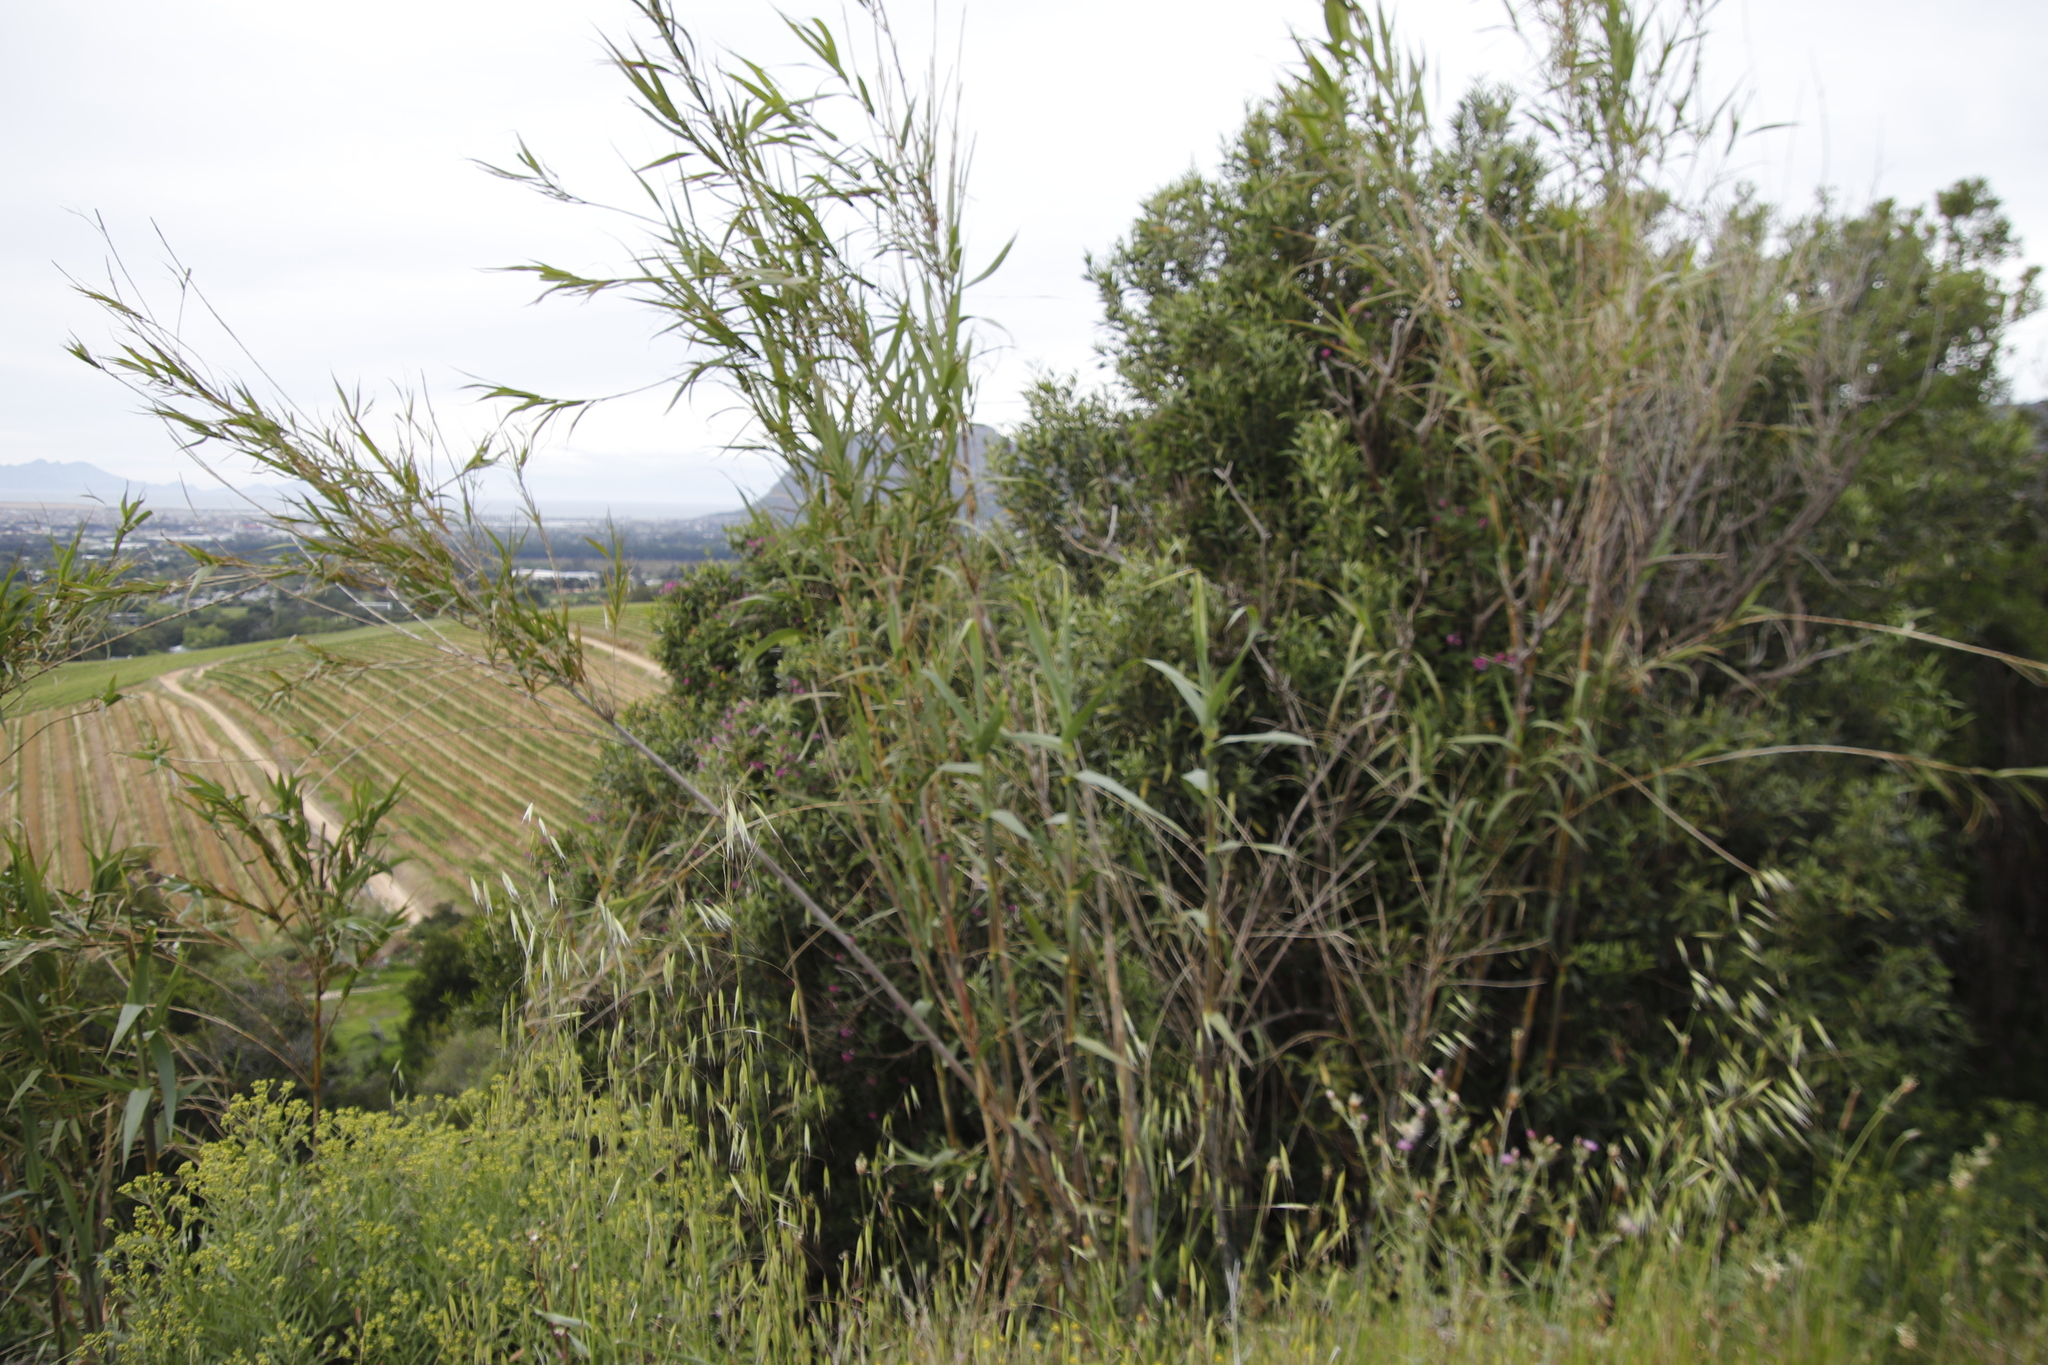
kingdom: Plantae
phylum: Tracheophyta
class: Liliopsida
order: Poales
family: Poaceae
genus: Arundo
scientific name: Arundo donax
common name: Giant reed
